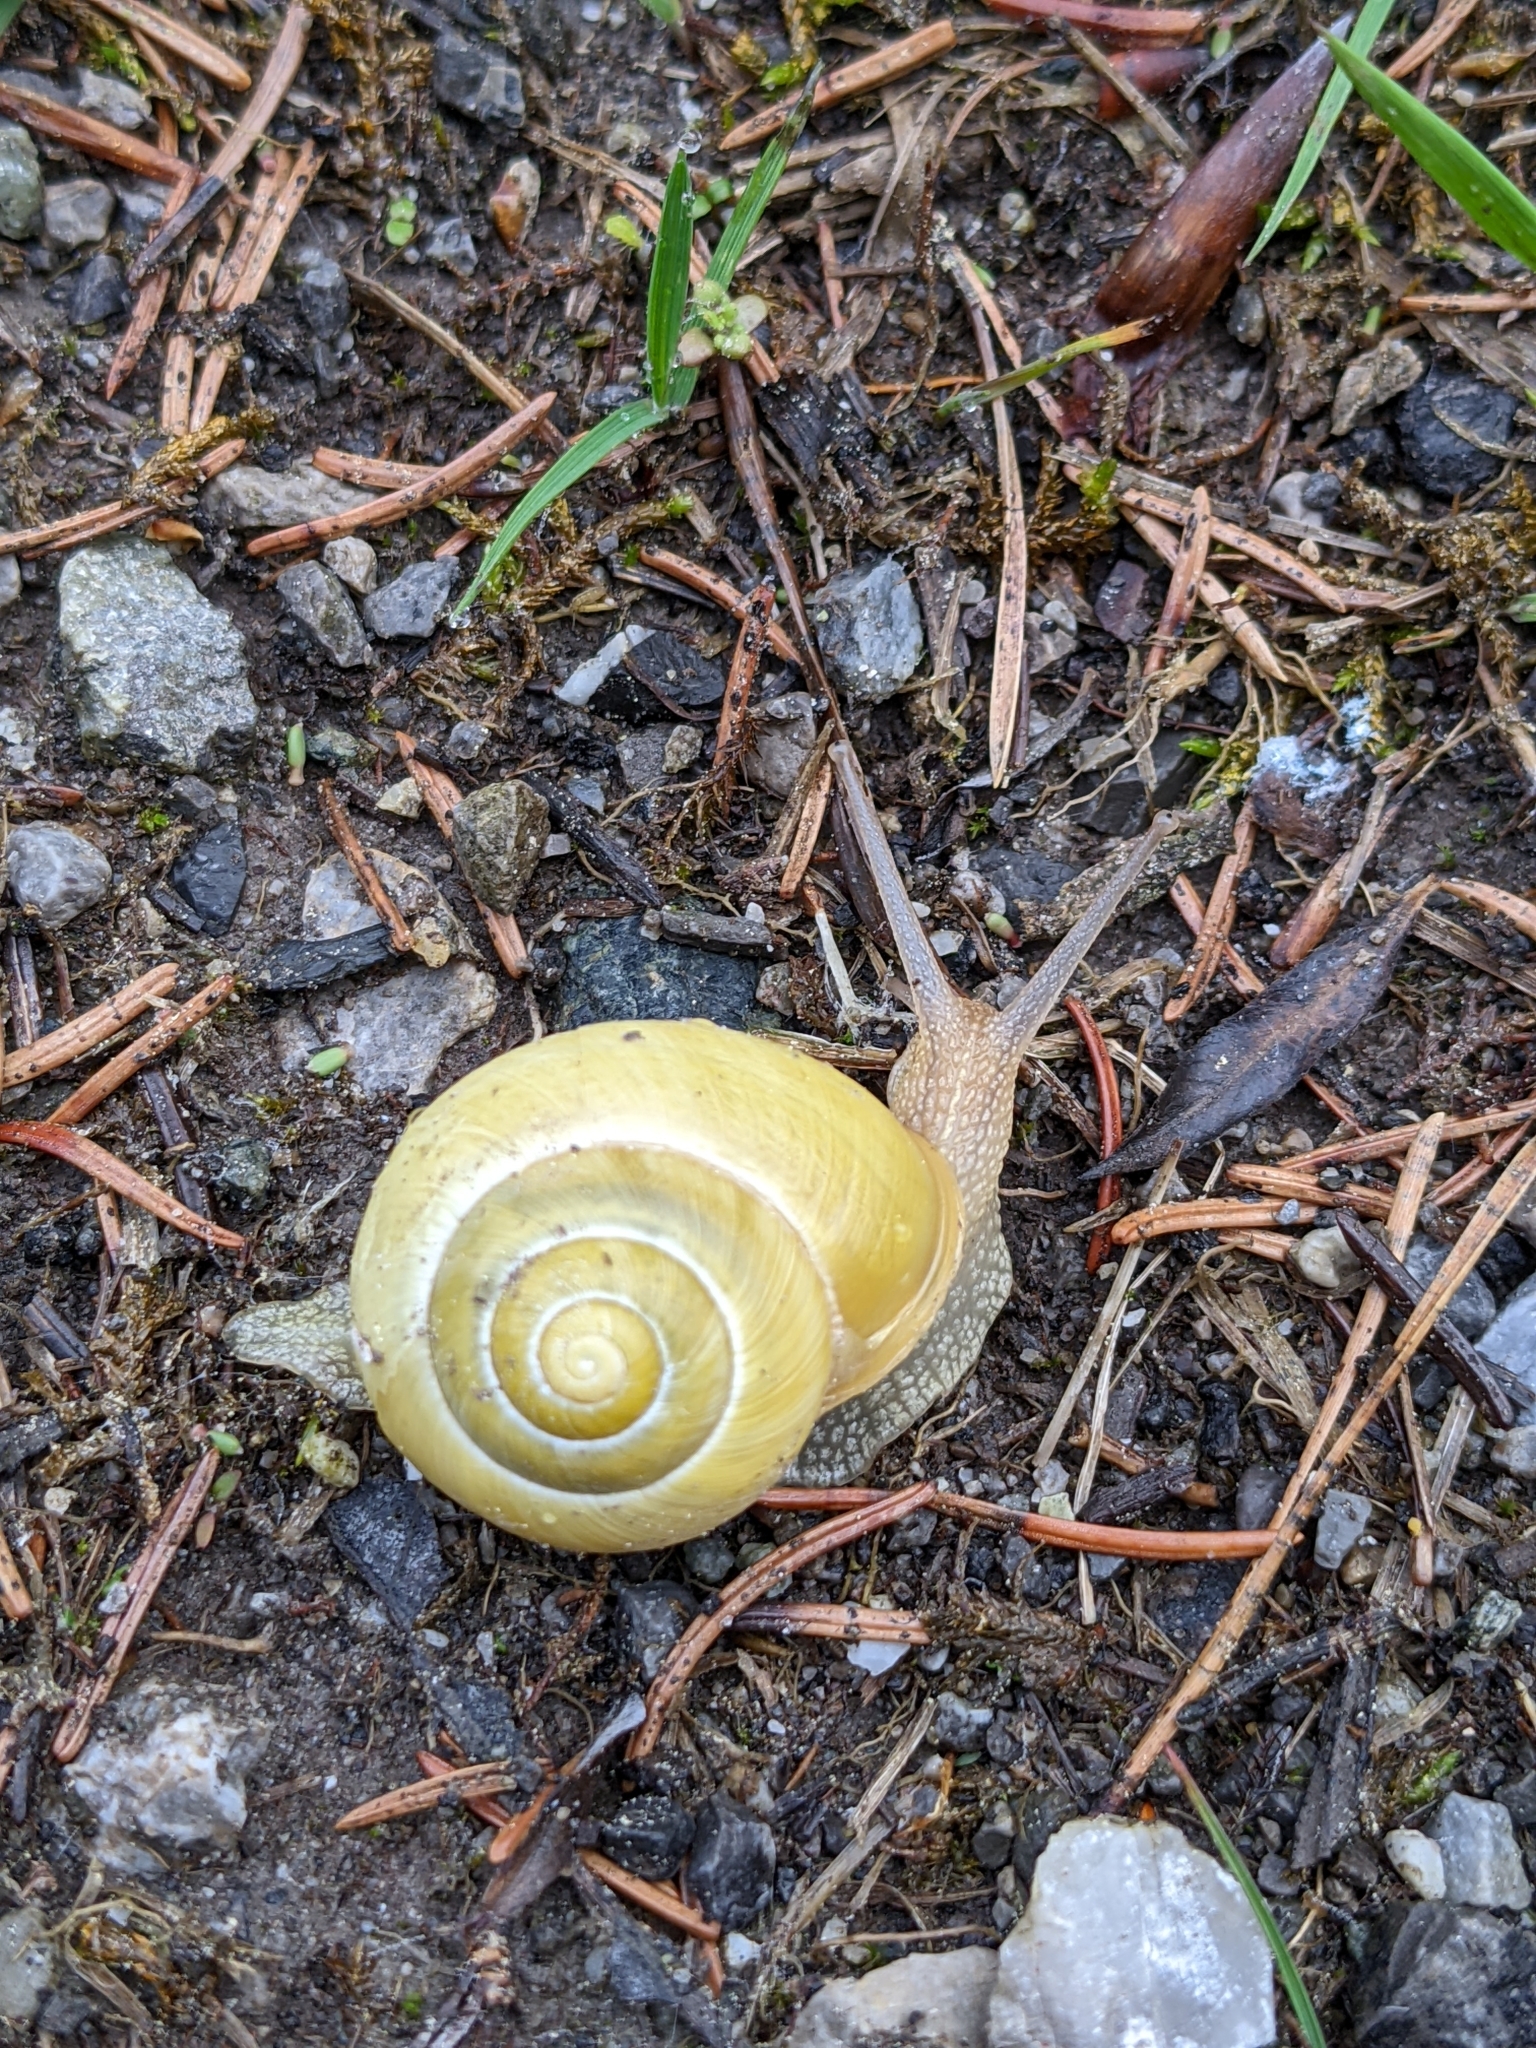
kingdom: Animalia
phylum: Mollusca
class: Gastropoda
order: Stylommatophora
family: Helicidae
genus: Cepaea
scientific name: Cepaea hortensis
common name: White-lip gardensnail
